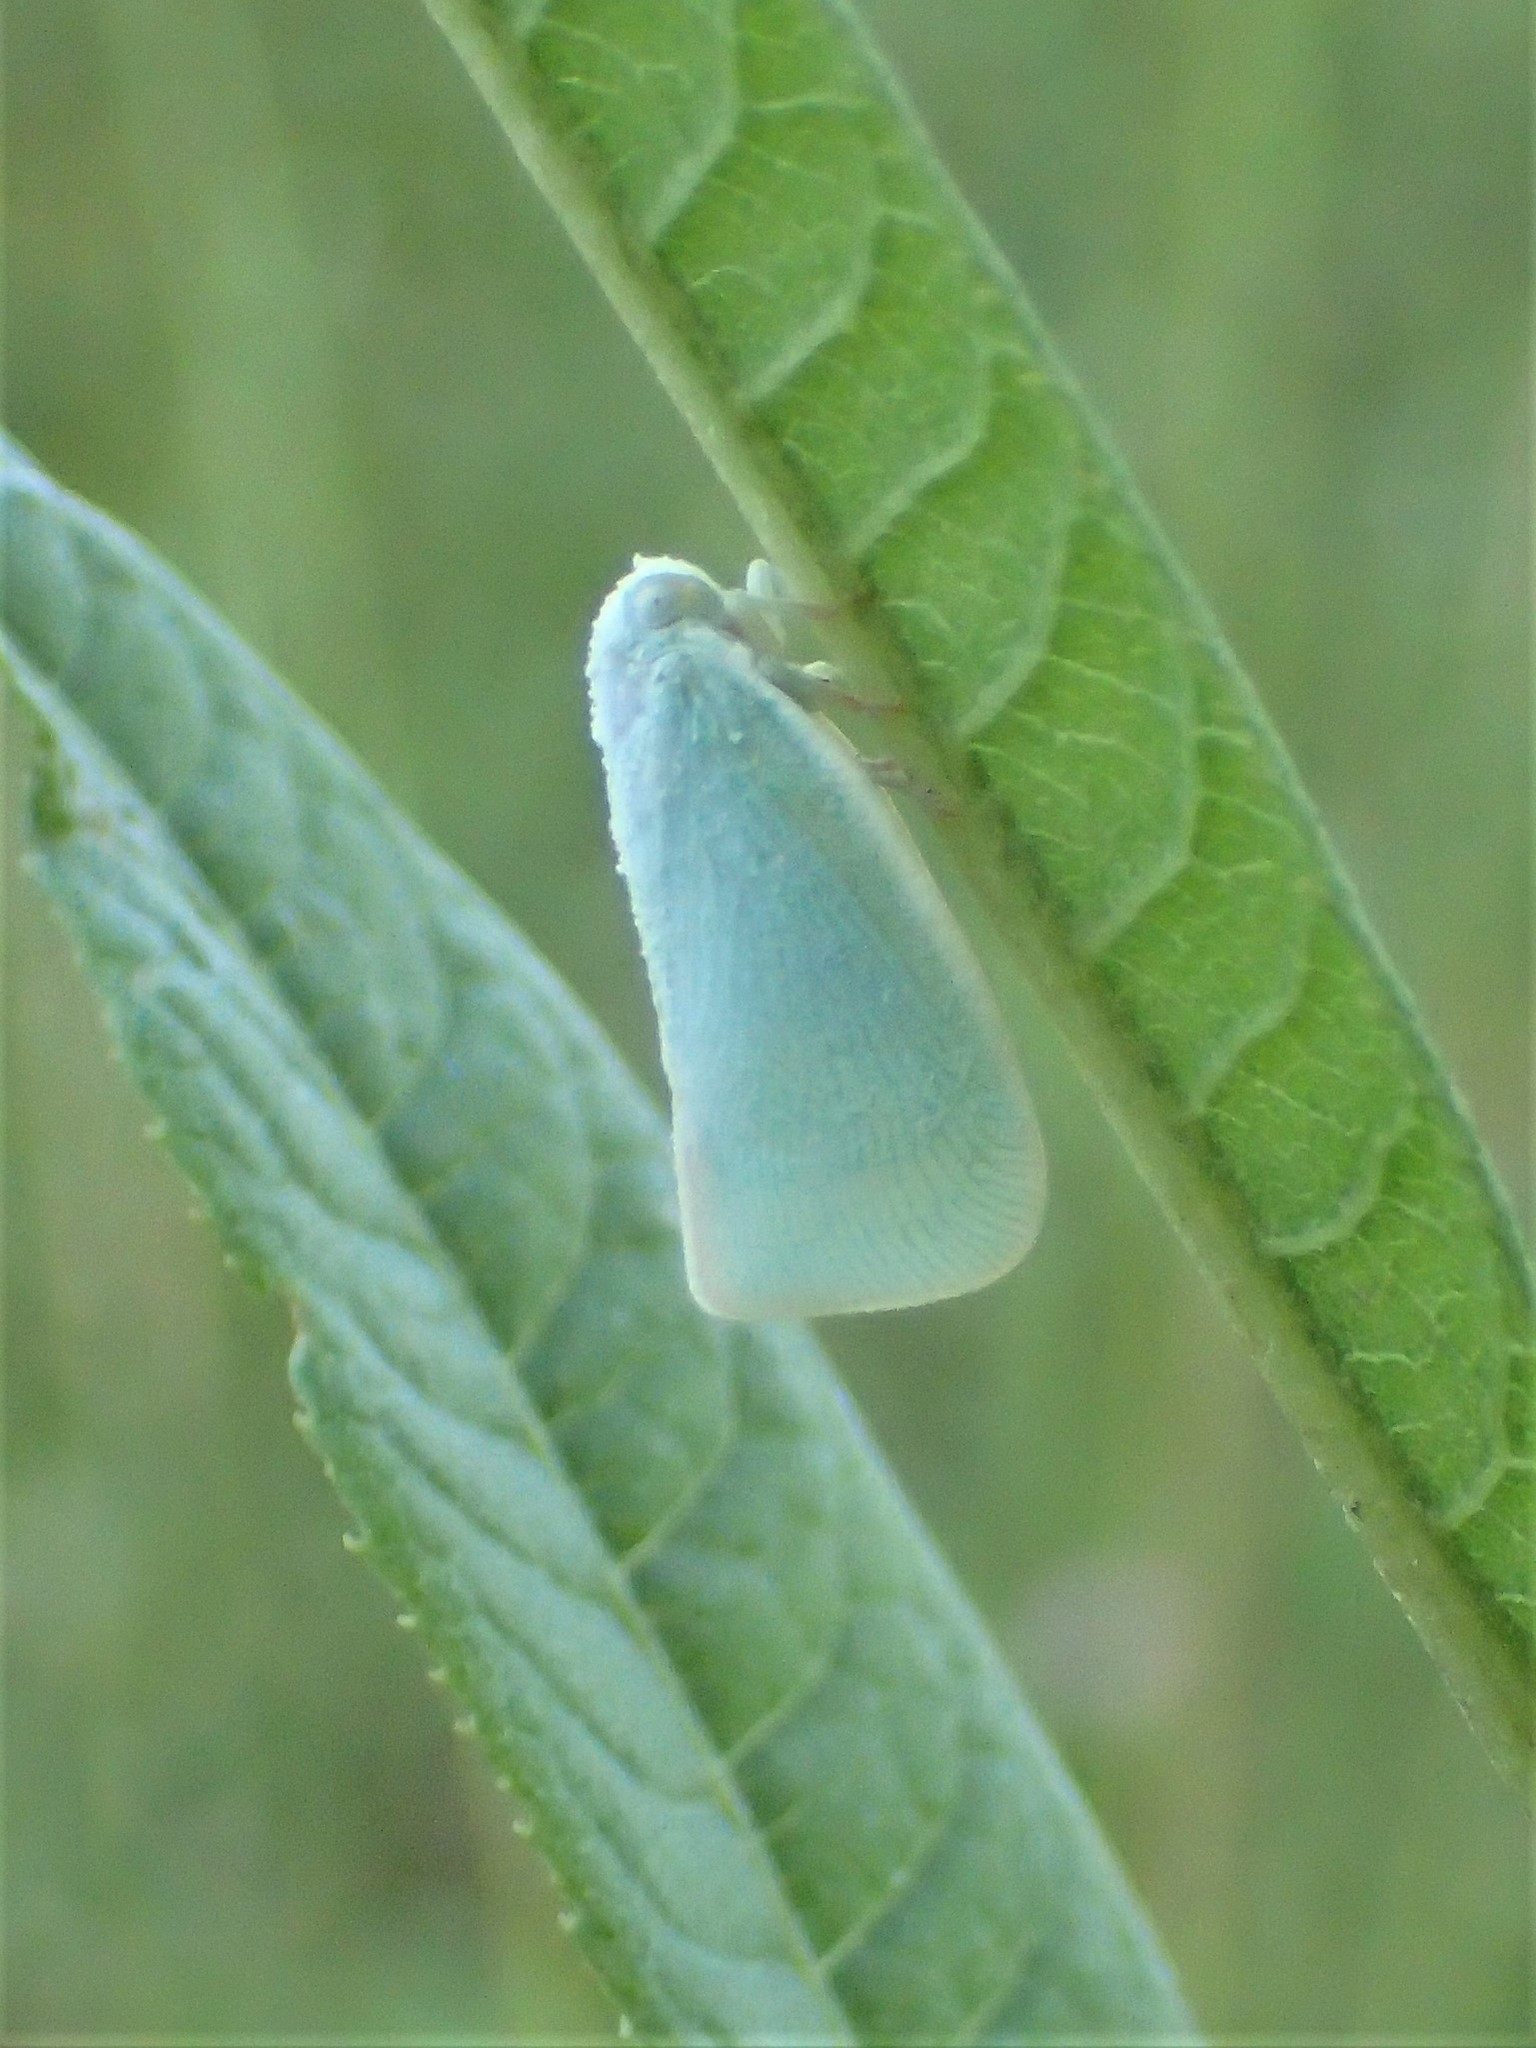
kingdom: Animalia
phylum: Arthropoda
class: Insecta
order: Hemiptera
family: Flatidae
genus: Flatormenis
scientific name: Flatormenis proxima
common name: Northern flatid planthopper
